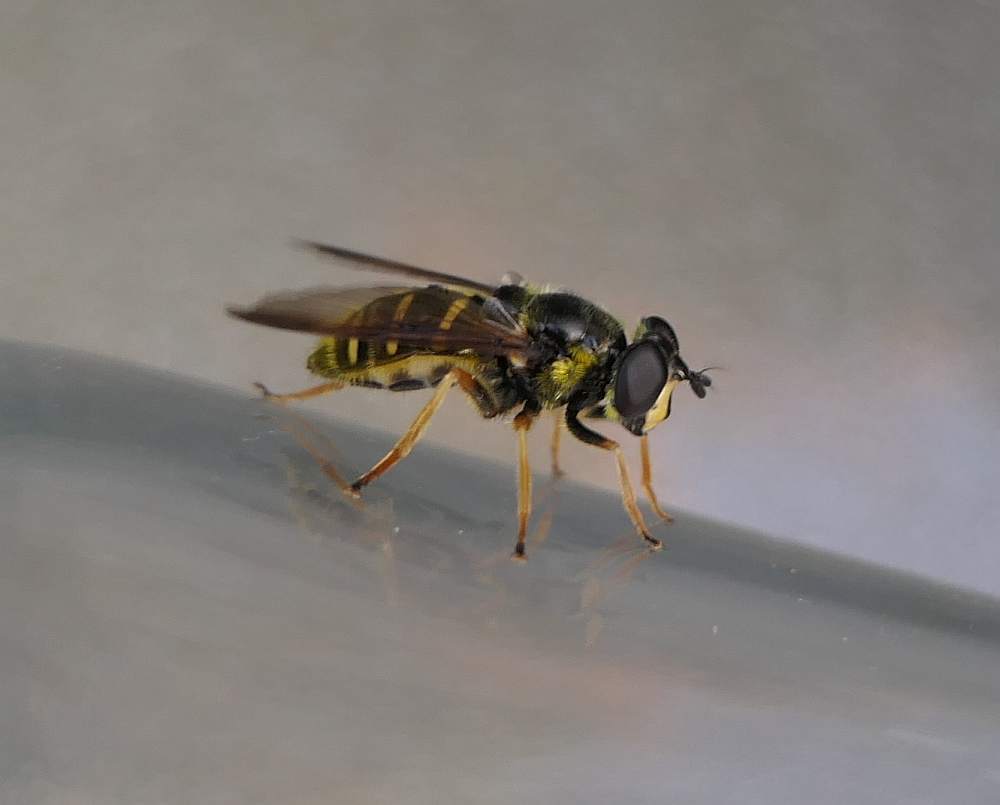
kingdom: Animalia
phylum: Arthropoda
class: Insecta
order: Diptera
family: Syrphidae
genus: Sericomyia
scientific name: Sericomyia chrysotoxoides
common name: Oblique-banded pond fly
